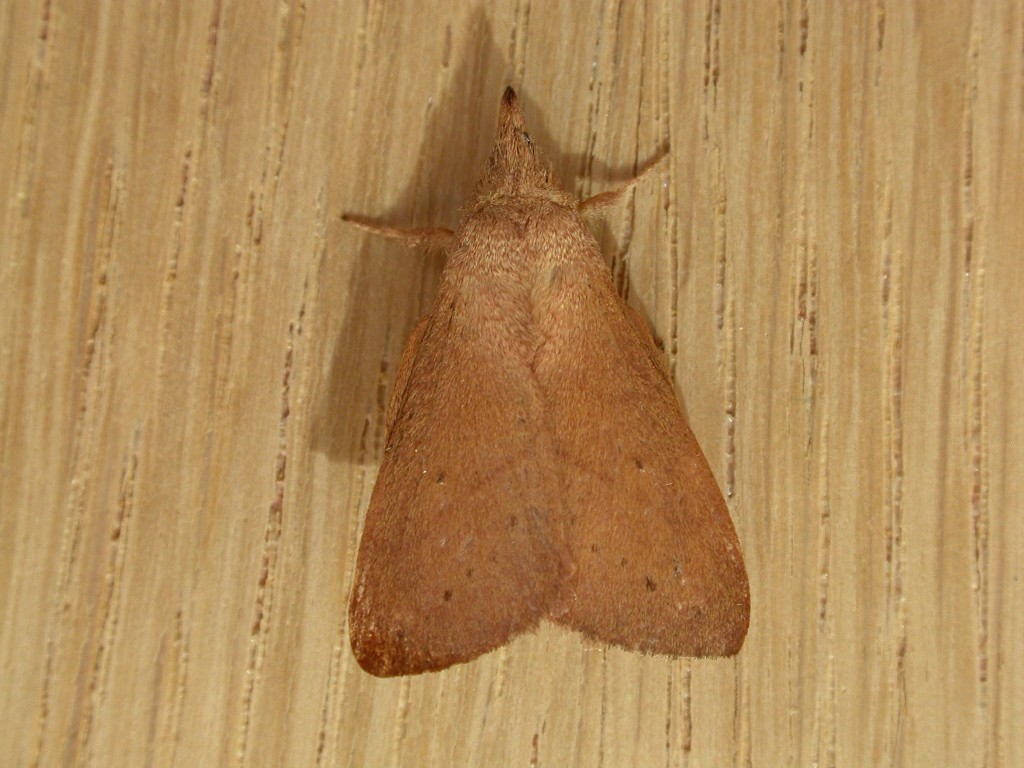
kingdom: Animalia
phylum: Arthropoda
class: Insecta
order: Lepidoptera
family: Lasiocampidae
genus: Pararguda
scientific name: Pararguda nasuta
